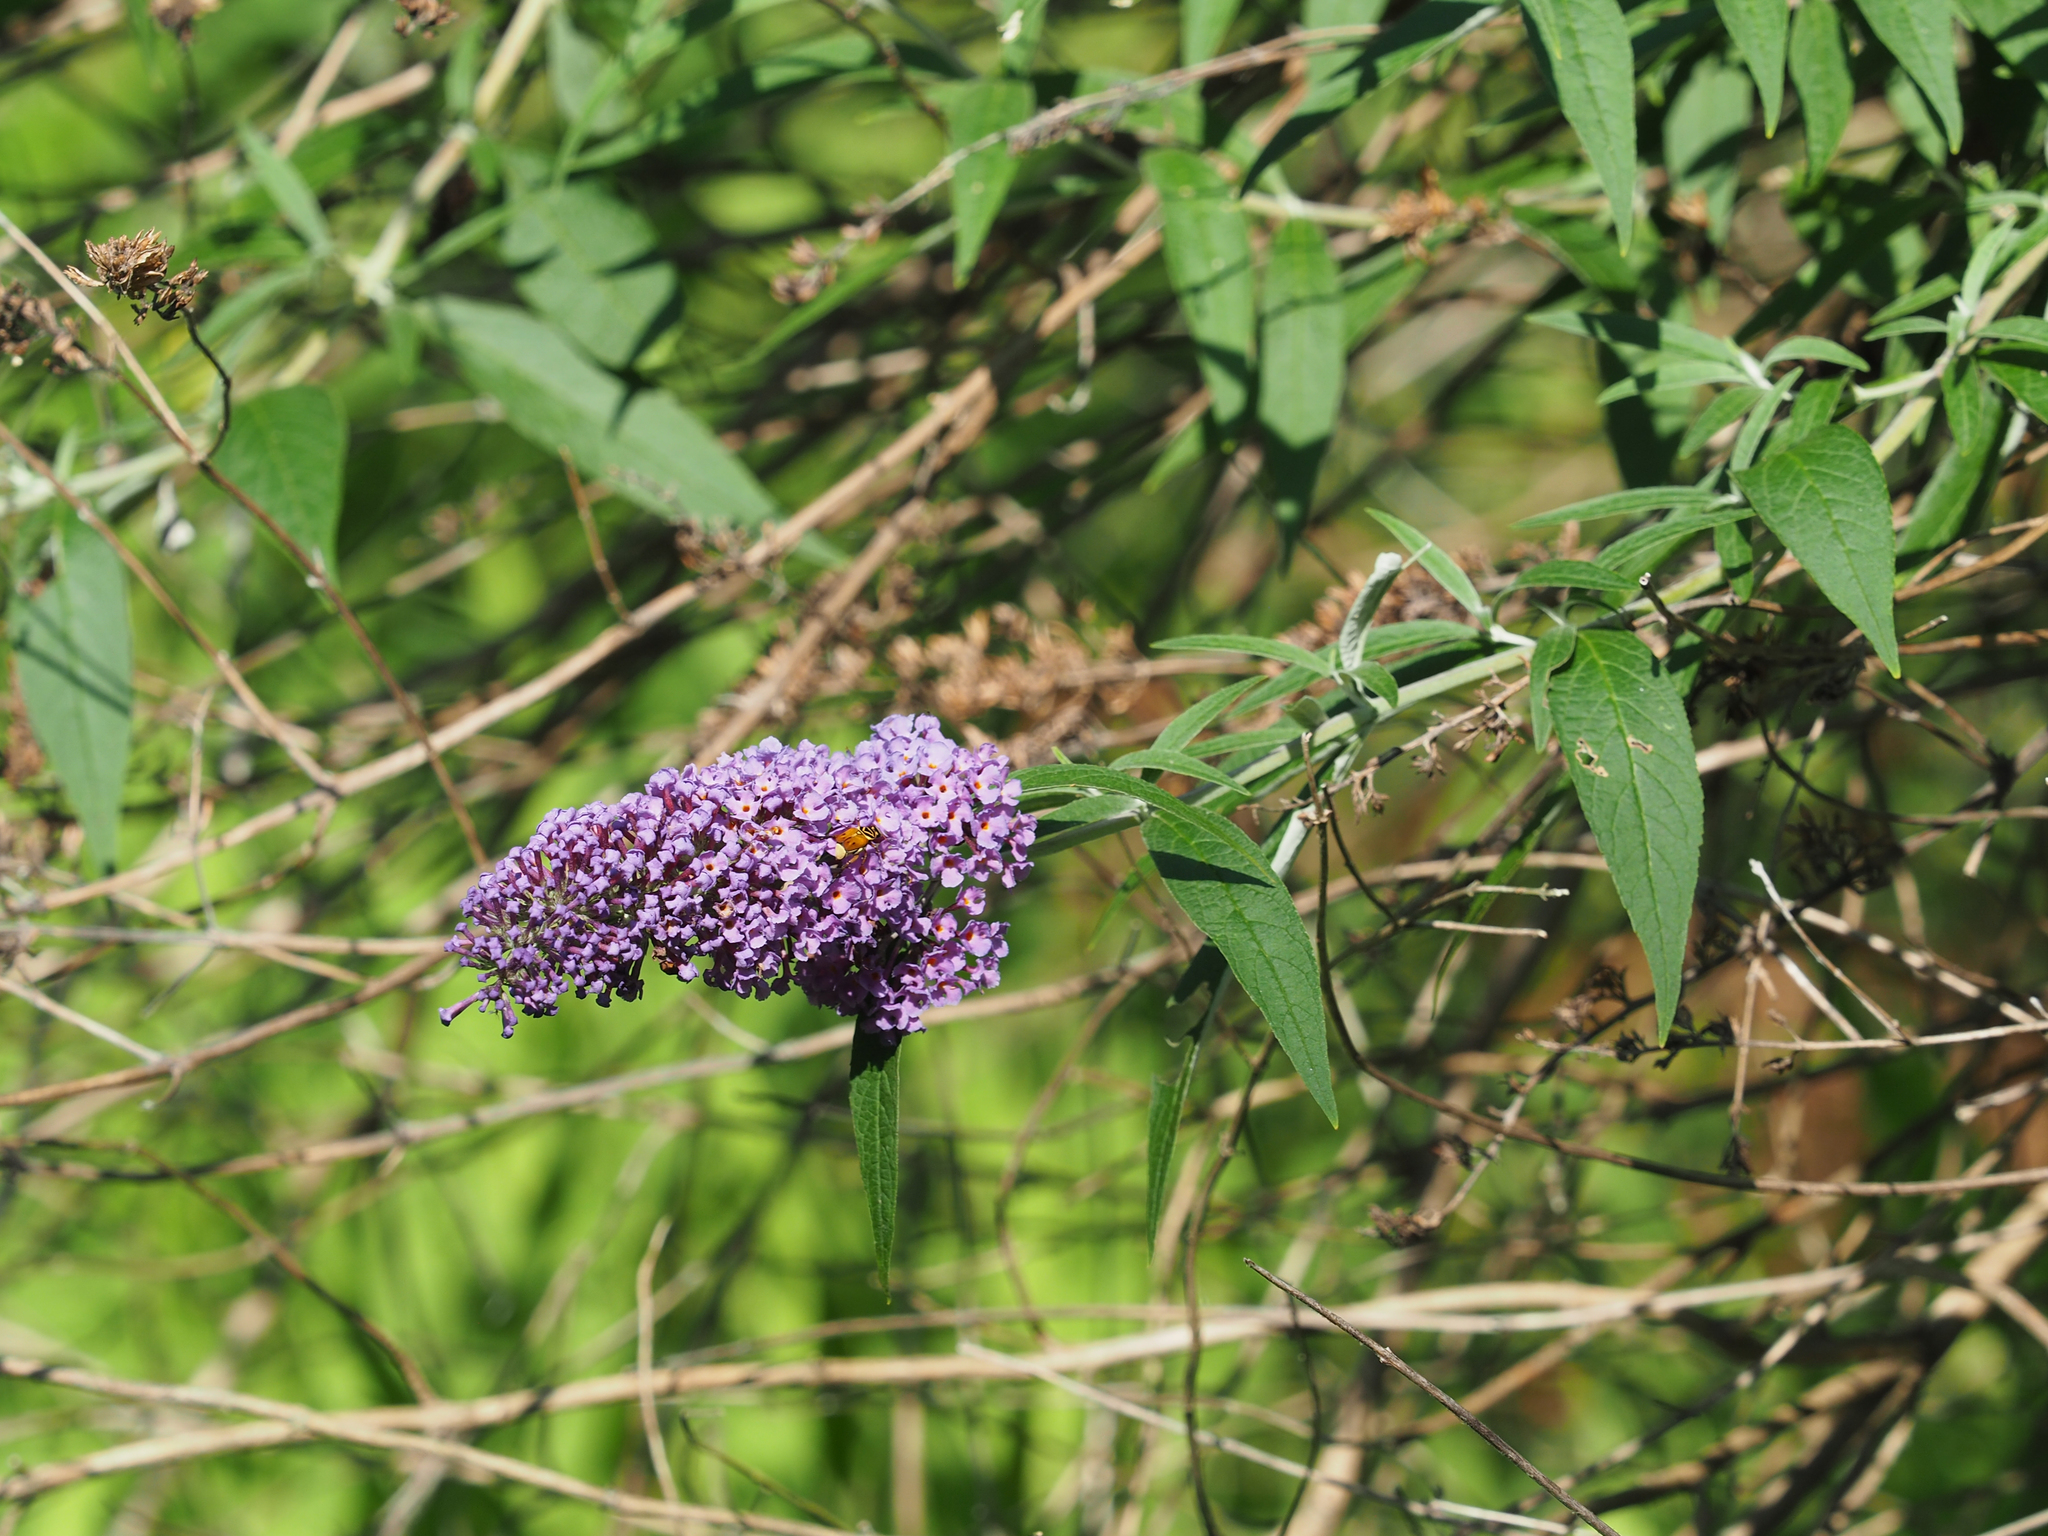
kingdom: Plantae
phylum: Tracheophyta
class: Magnoliopsida
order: Lamiales
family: Scrophulariaceae
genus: Buddleja
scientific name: Buddleja davidii
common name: Butterfly-bush
